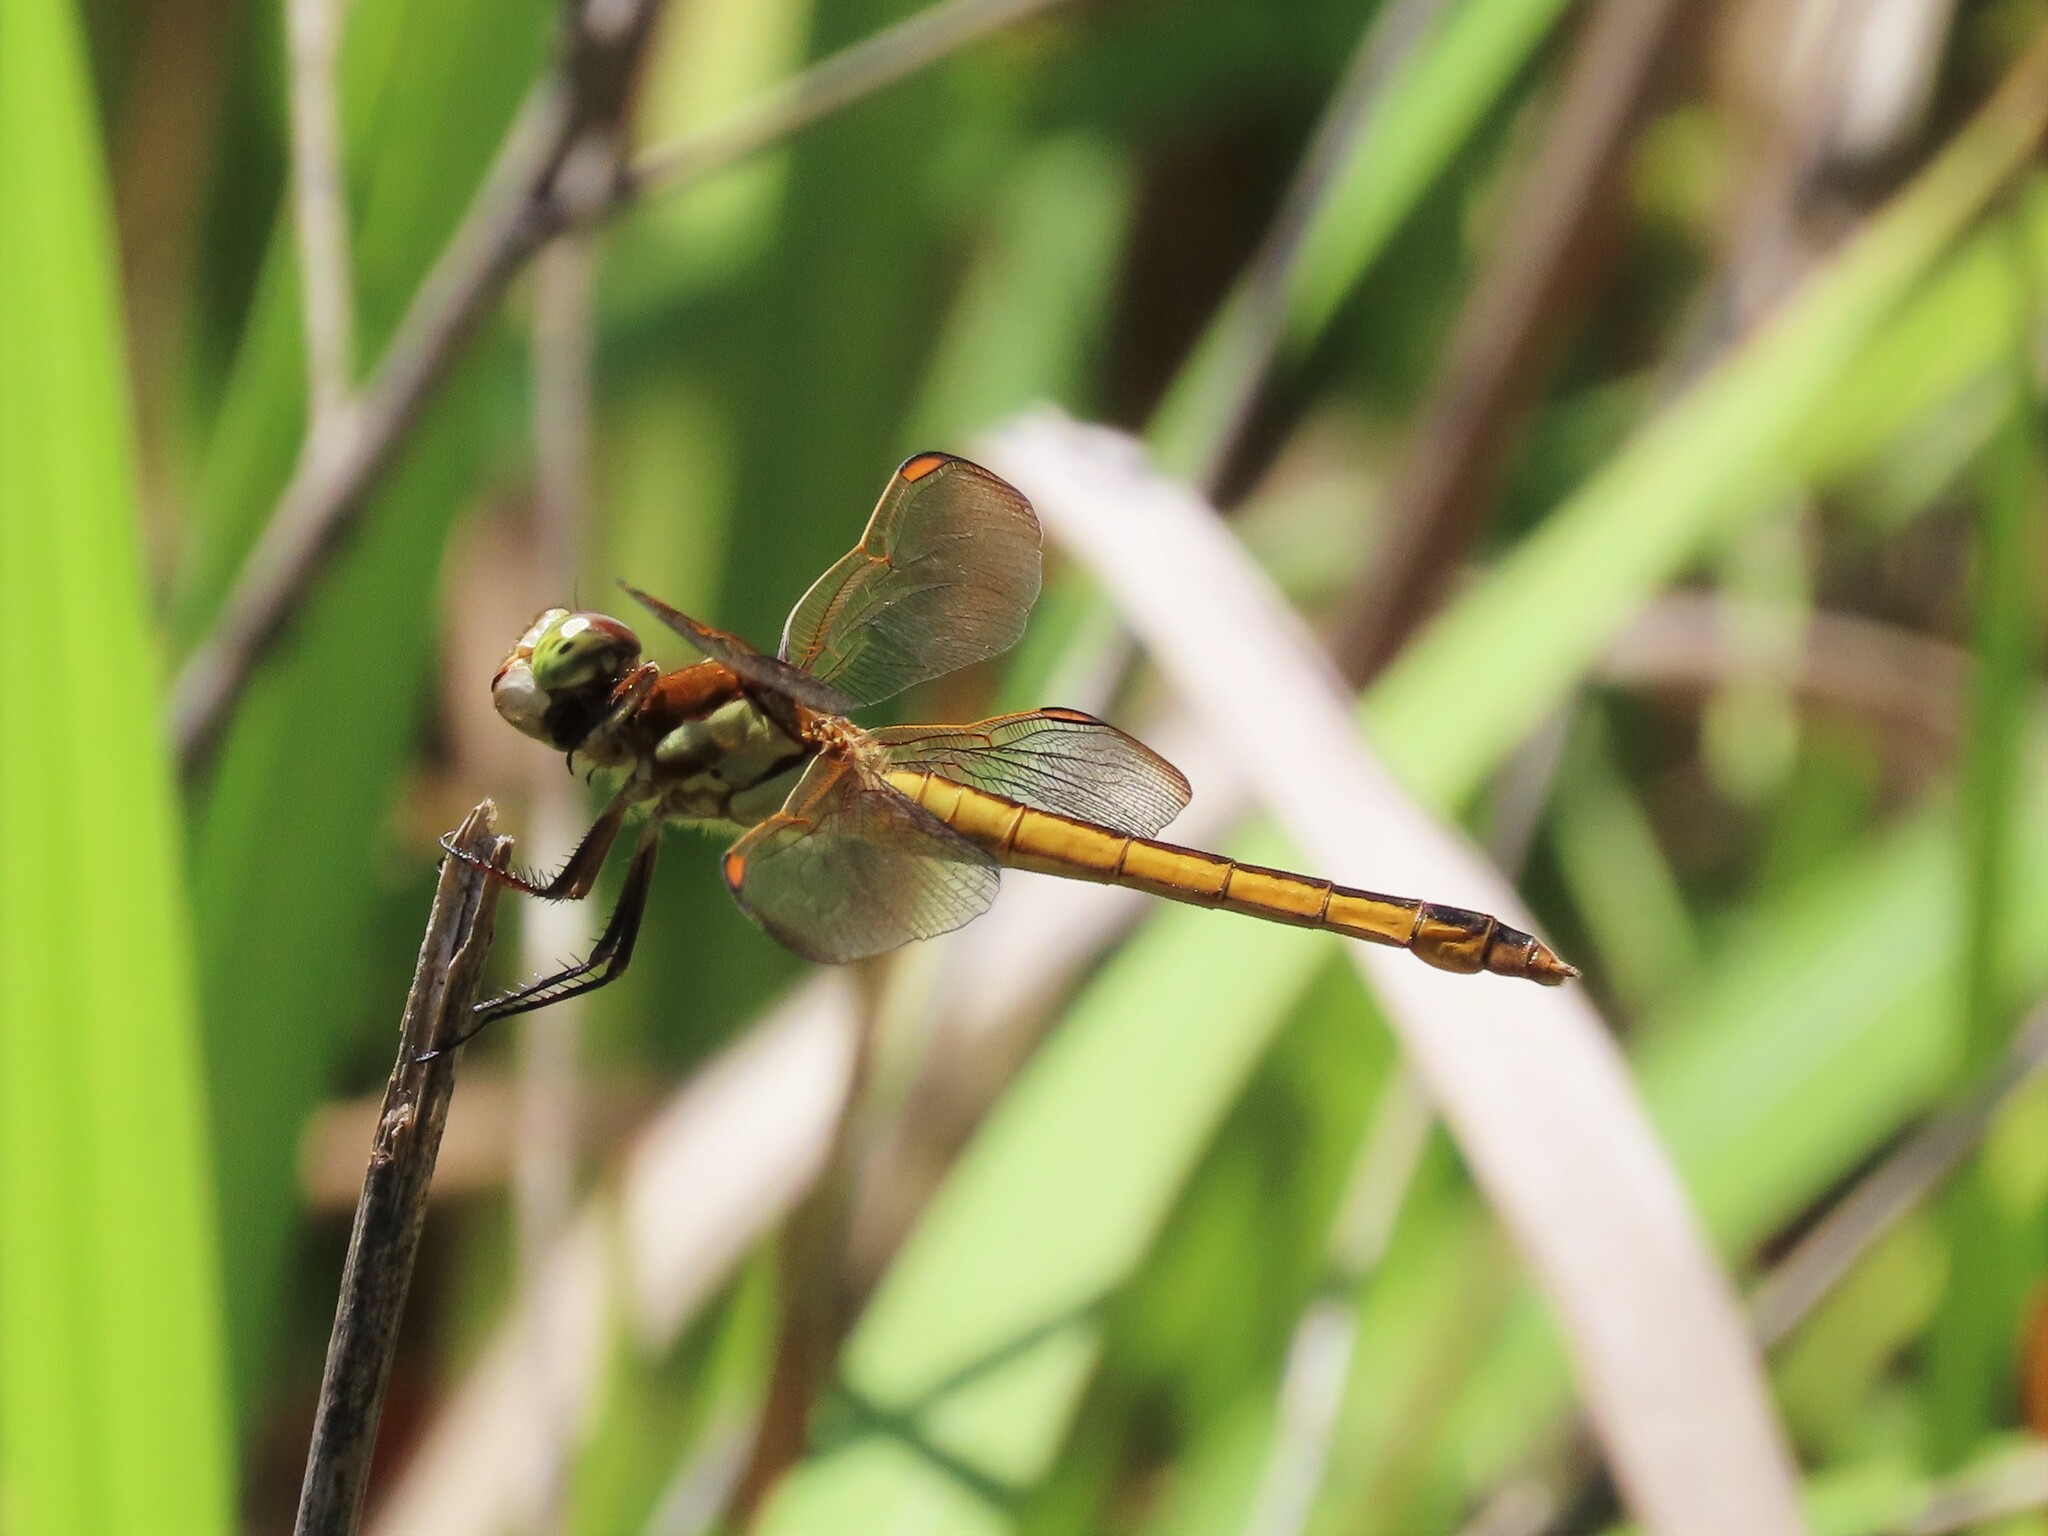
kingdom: Animalia
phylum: Arthropoda
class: Insecta
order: Odonata
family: Libellulidae
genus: Libellula
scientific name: Libellula auripennis
